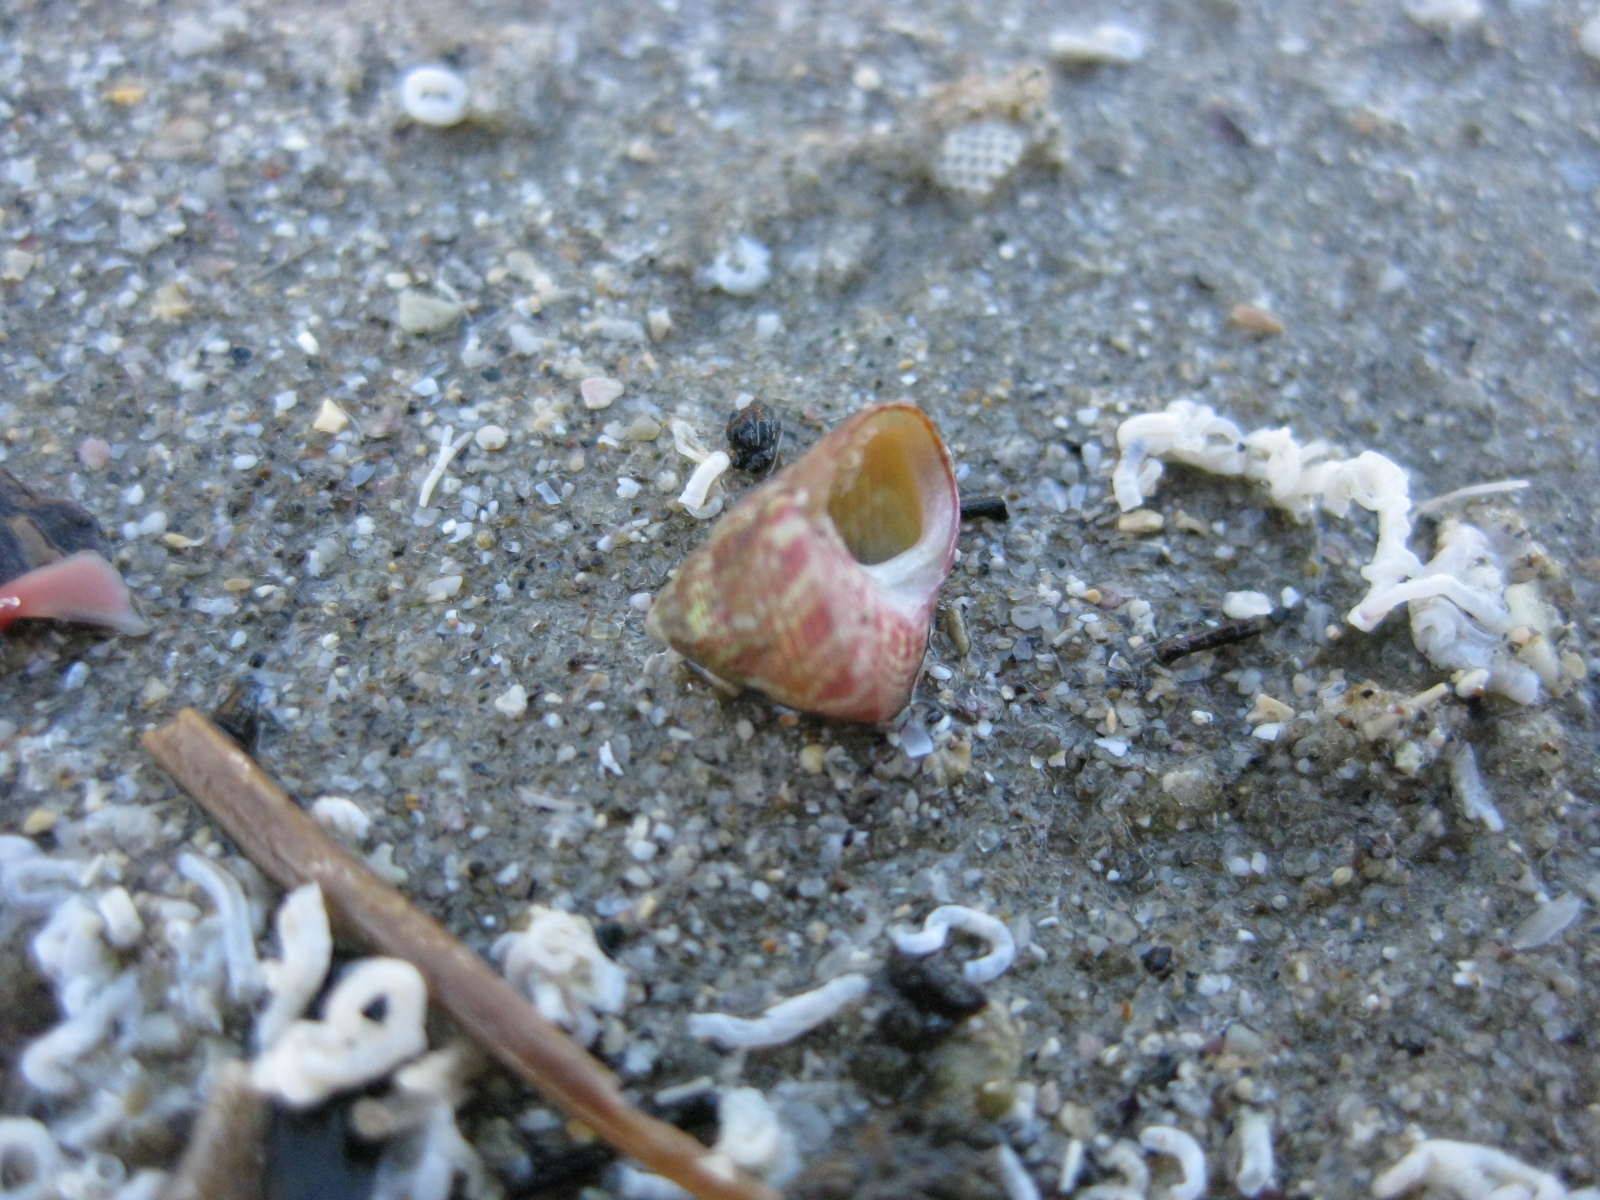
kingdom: Animalia
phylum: Mollusca
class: Gastropoda
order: Trochida
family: Trochidae
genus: Micrelenchus
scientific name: Micrelenchus sanguineus
